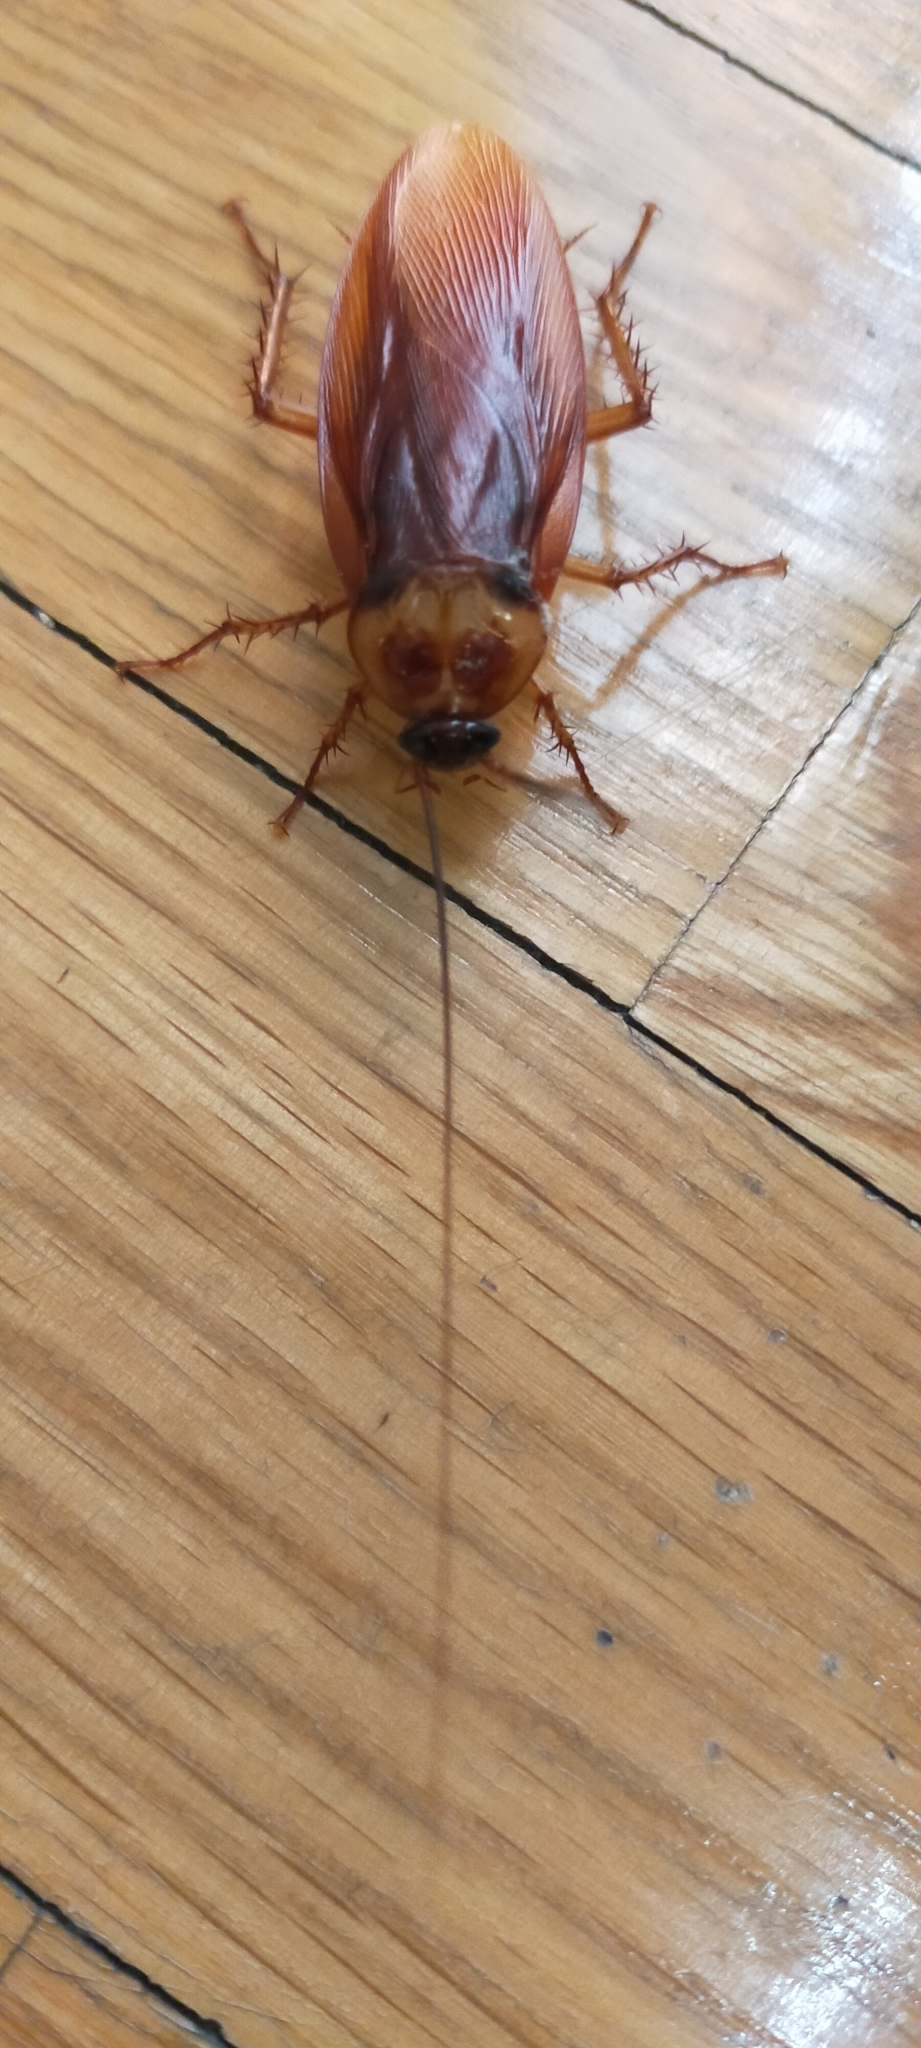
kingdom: Animalia
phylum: Arthropoda
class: Insecta
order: Blattodea
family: Blattidae
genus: Periplaneta
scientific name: Periplaneta americana
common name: American cockroach
